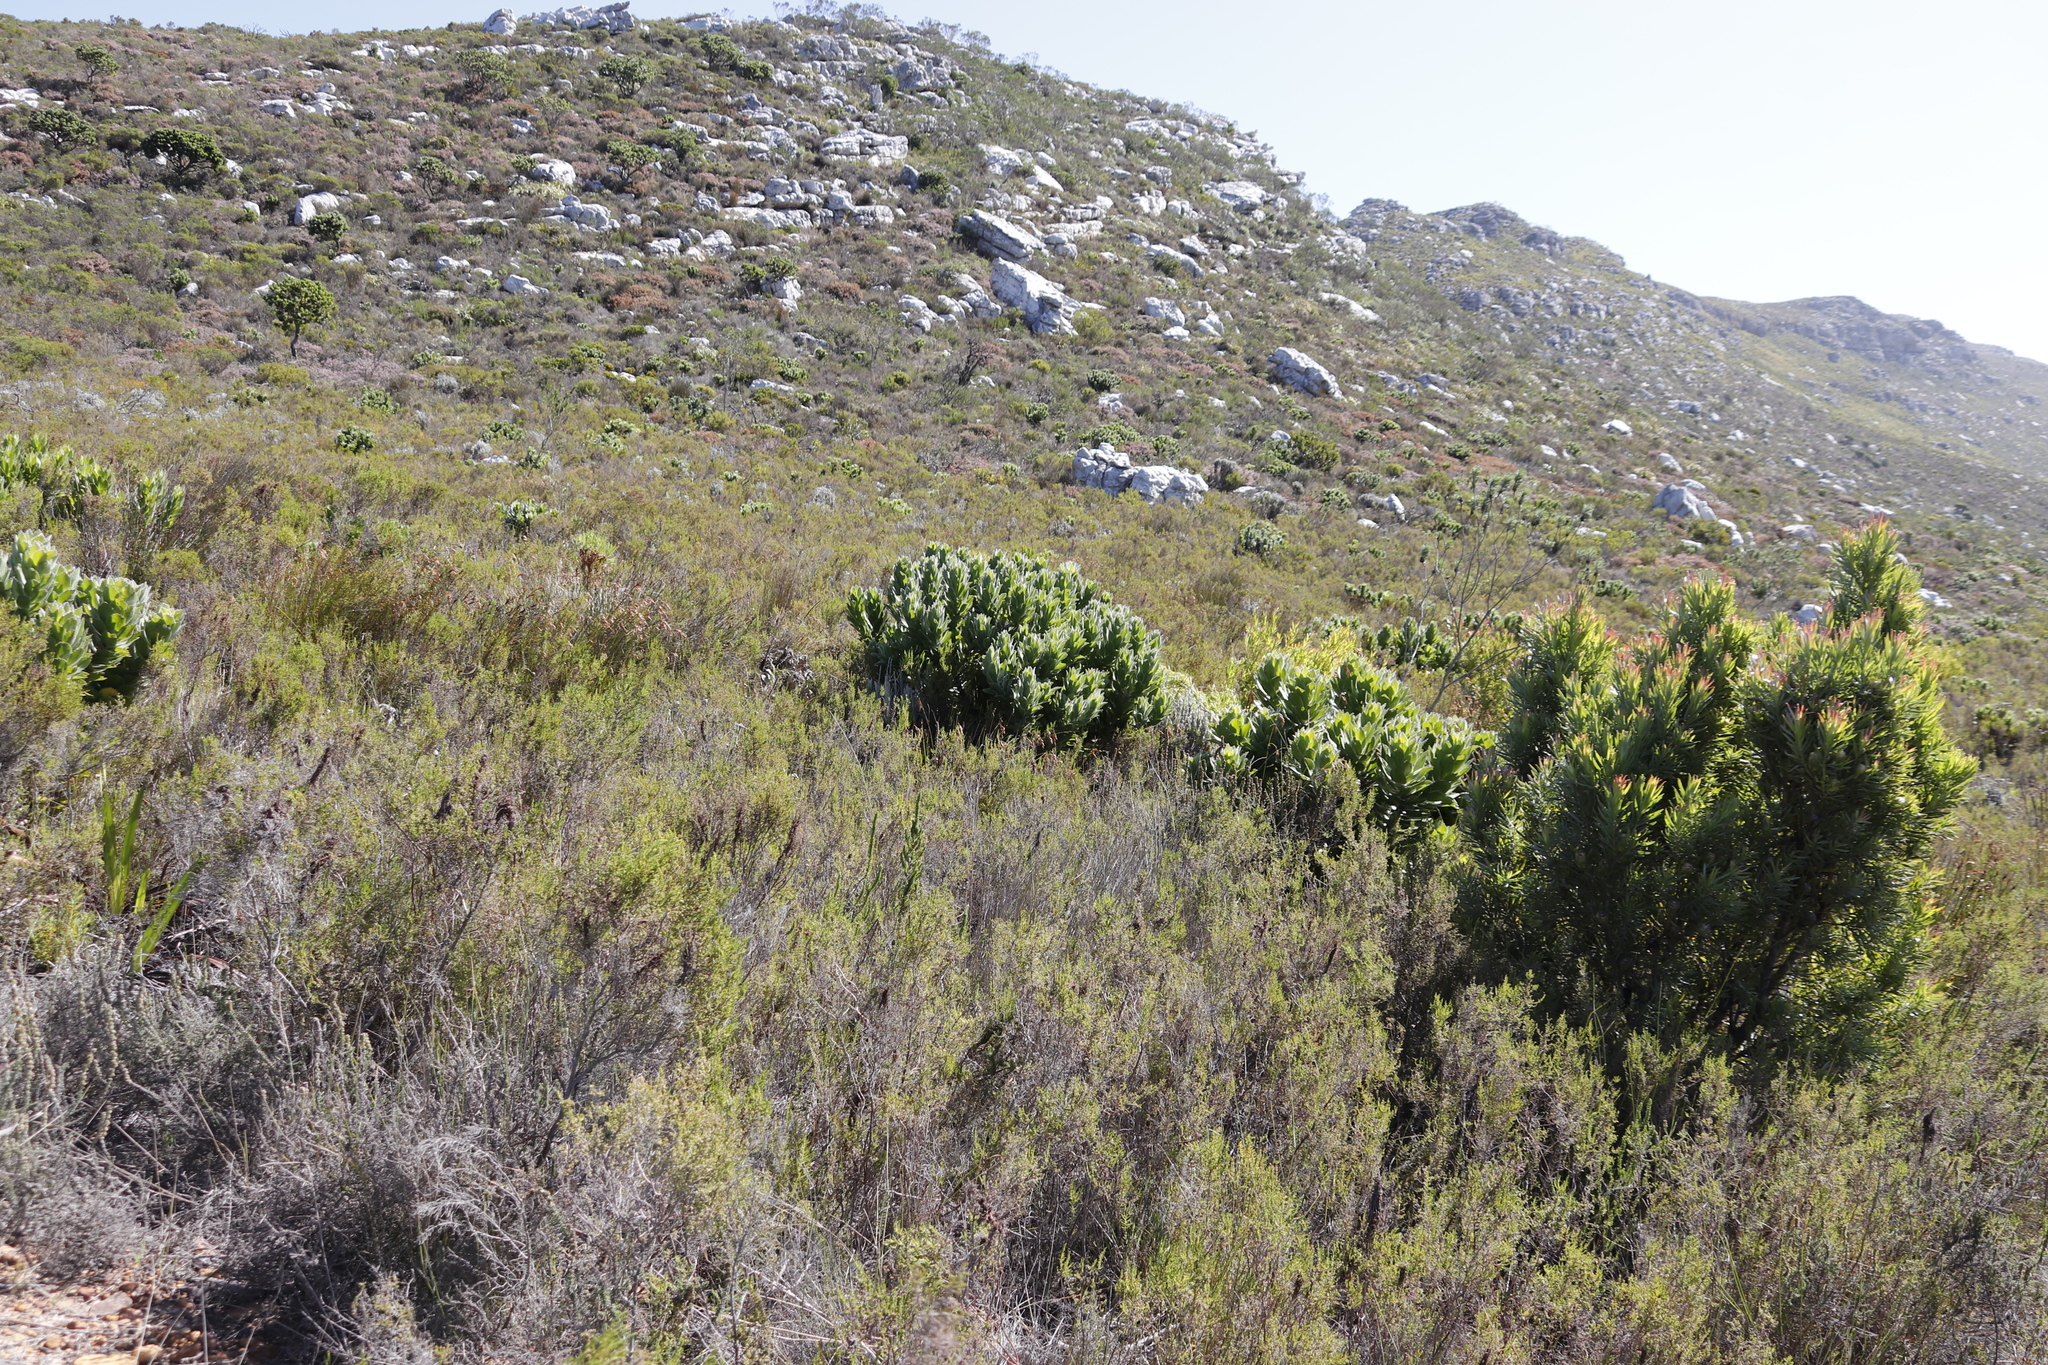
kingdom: Plantae
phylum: Tracheophyta
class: Magnoliopsida
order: Proteales
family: Proteaceae
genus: Leucospermum
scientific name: Leucospermum conocarpodendron
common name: Tree pincushion
